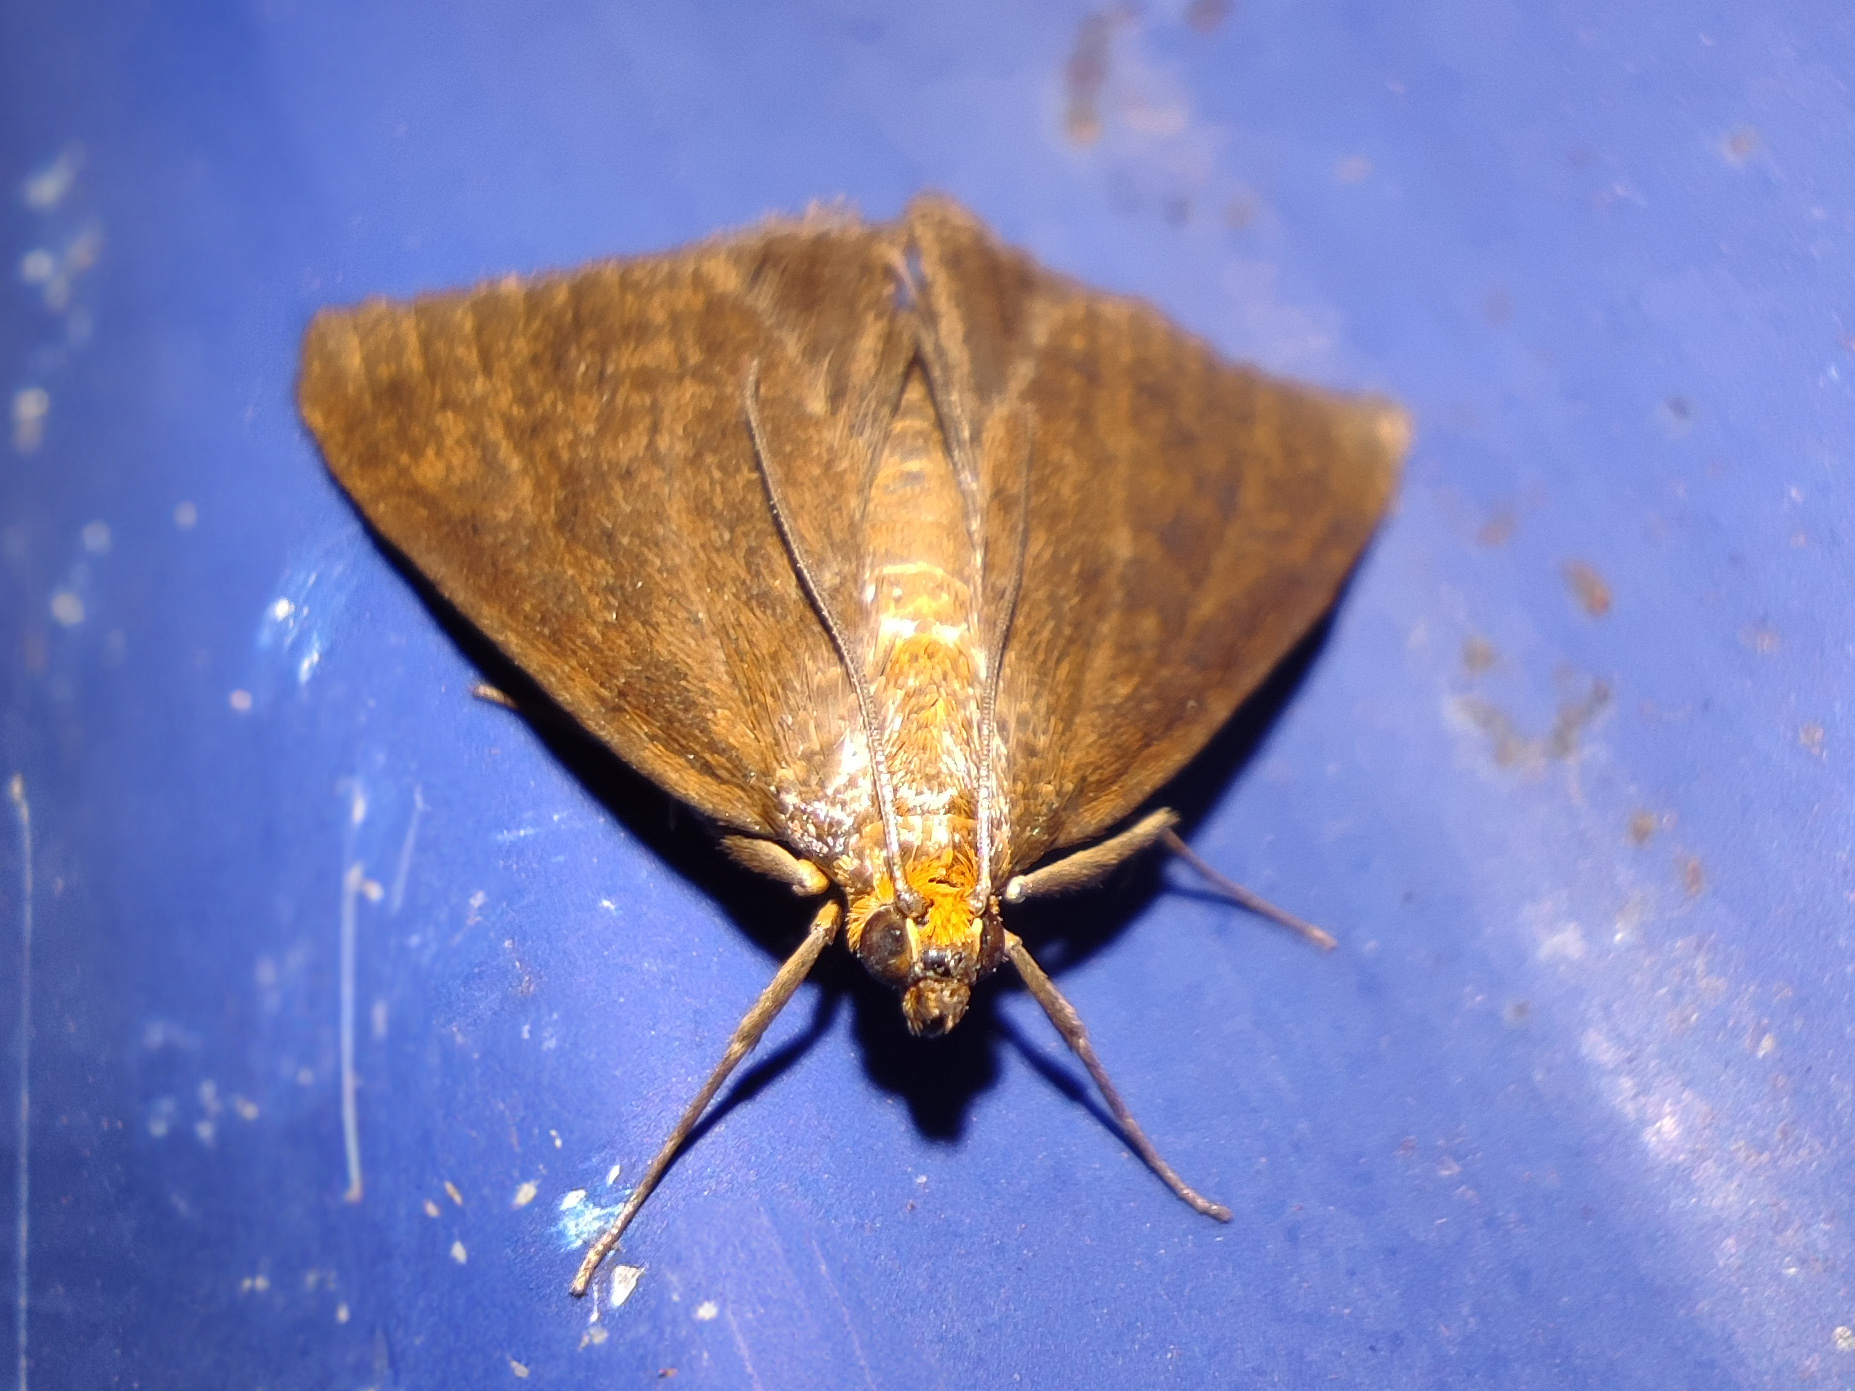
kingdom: Animalia
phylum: Arthropoda
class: Insecta
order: Lepidoptera
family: Crambidae
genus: Evergestis
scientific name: Evergestis aenealis
